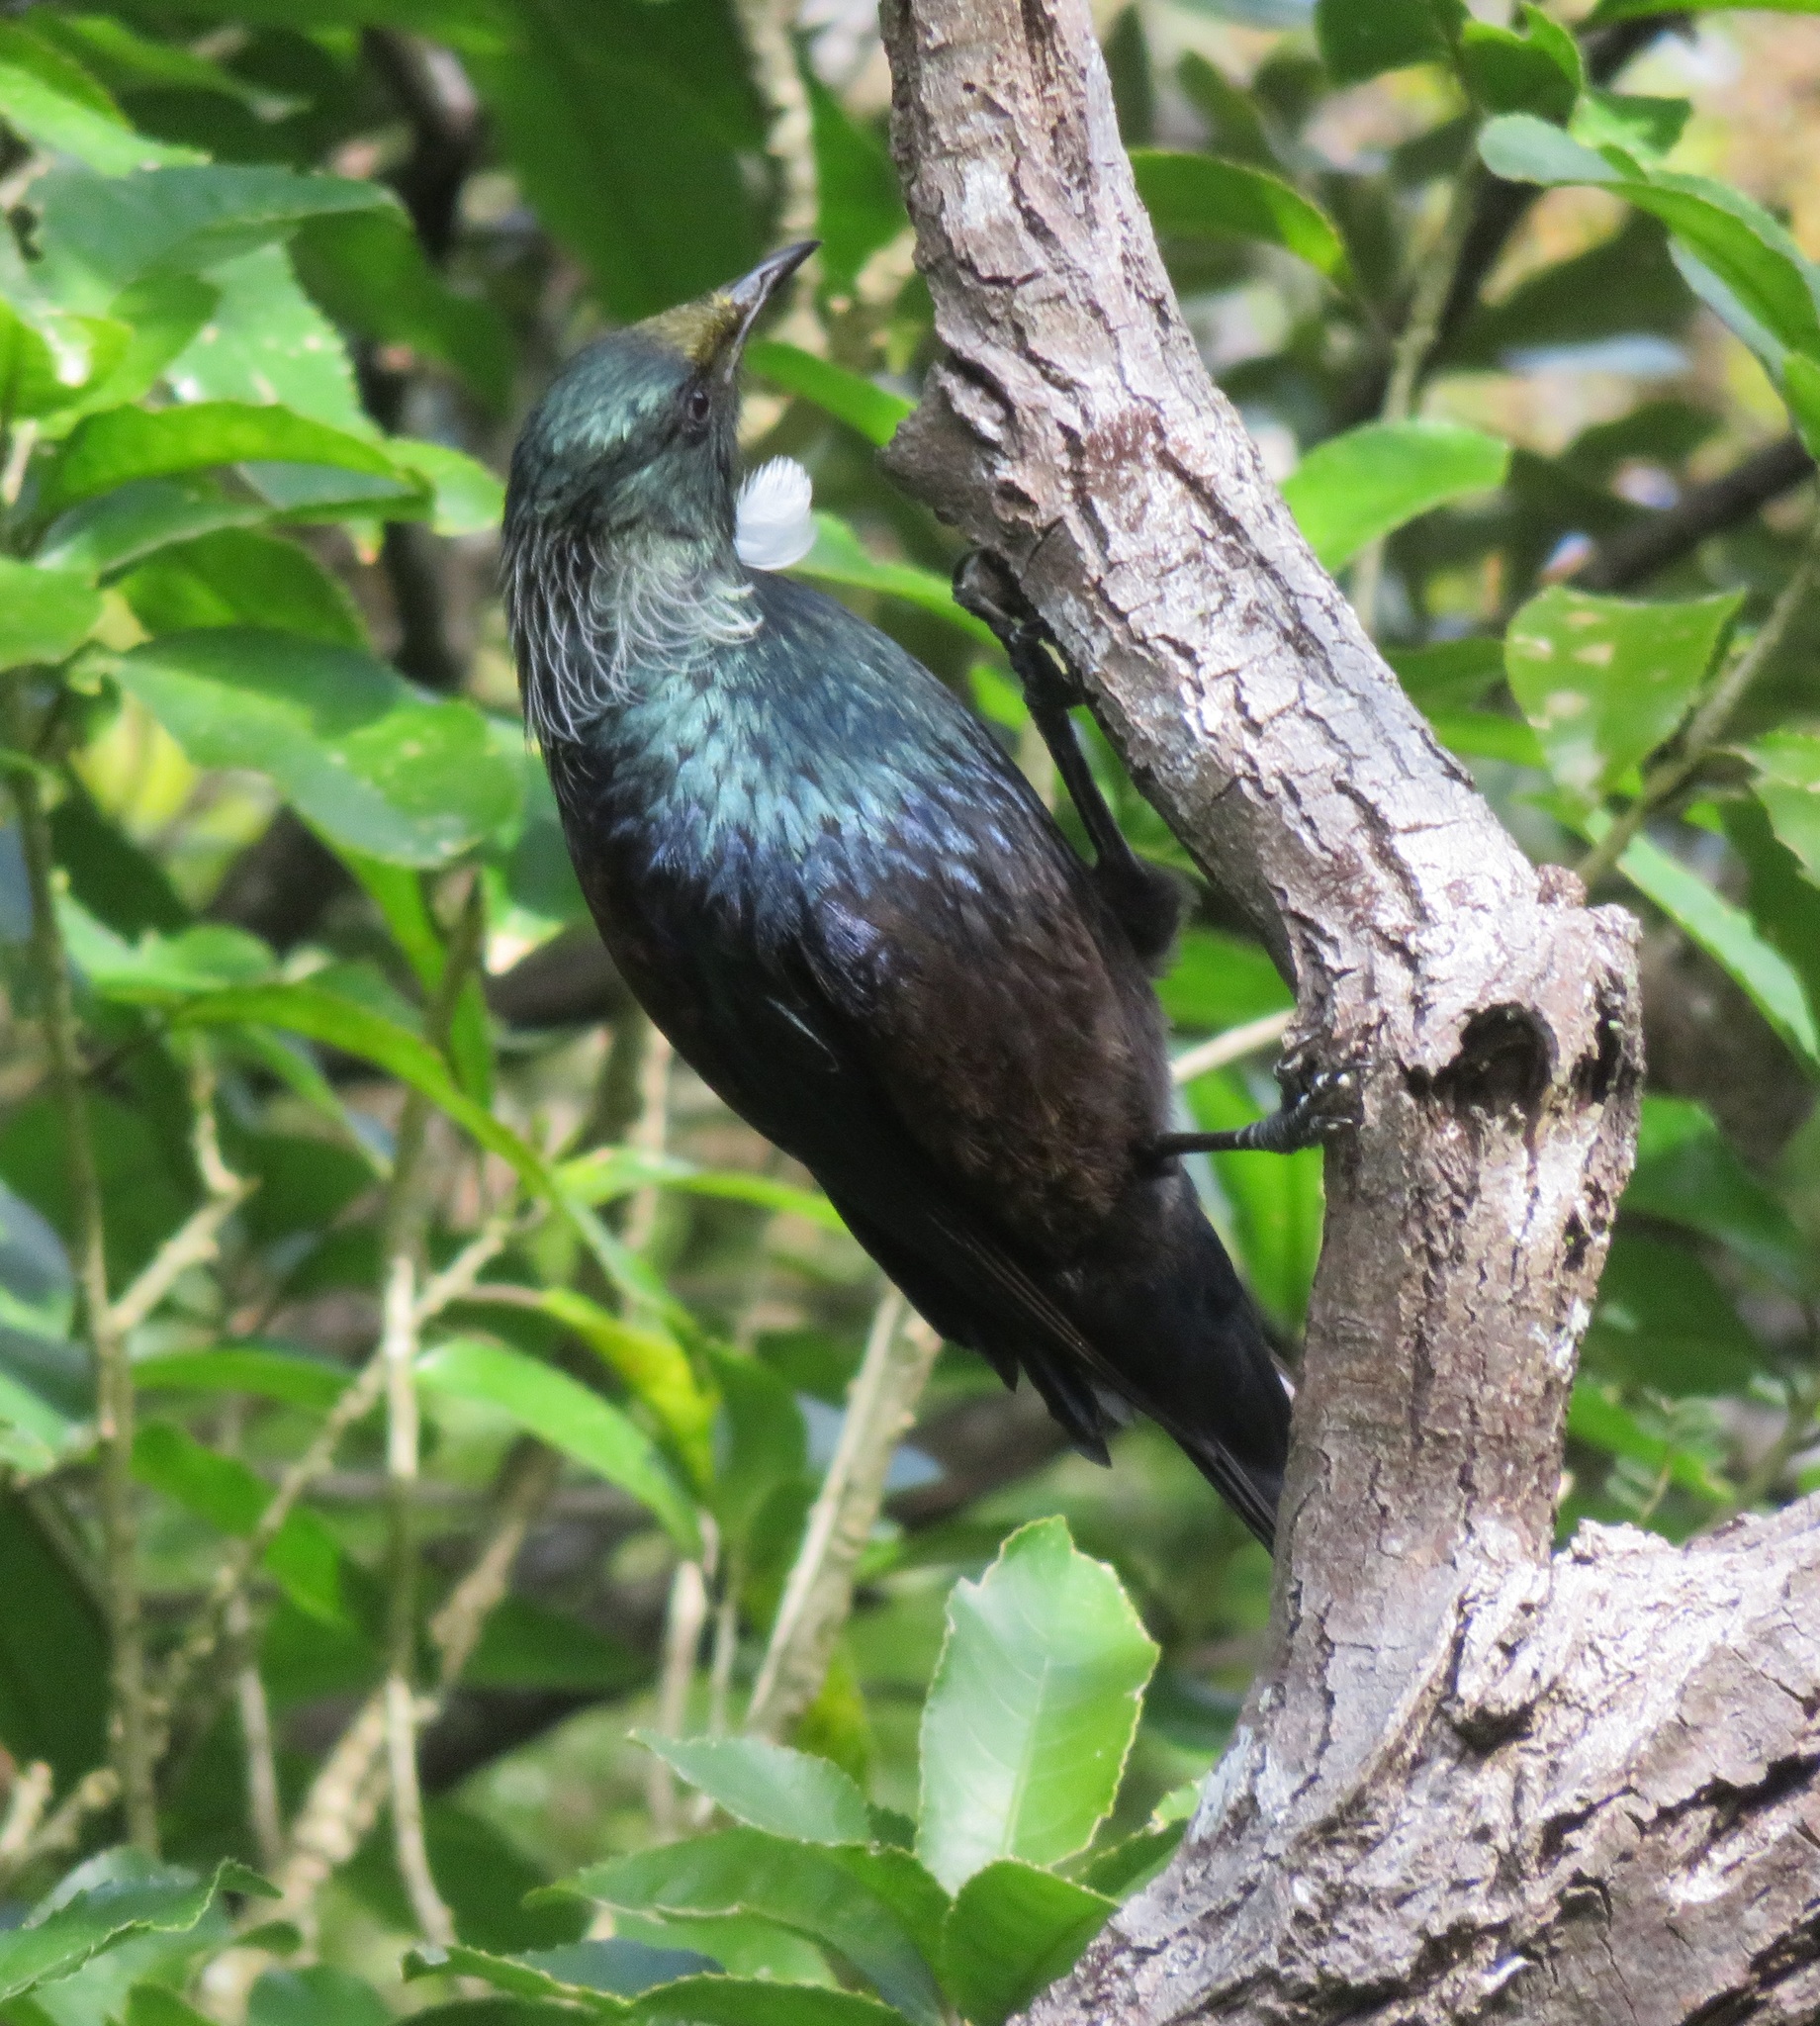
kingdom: Animalia
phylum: Chordata
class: Aves
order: Passeriformes
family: Meliphagidae
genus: Prosthemadera
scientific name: Prosthemadera novaeseelandiae
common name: Tui
